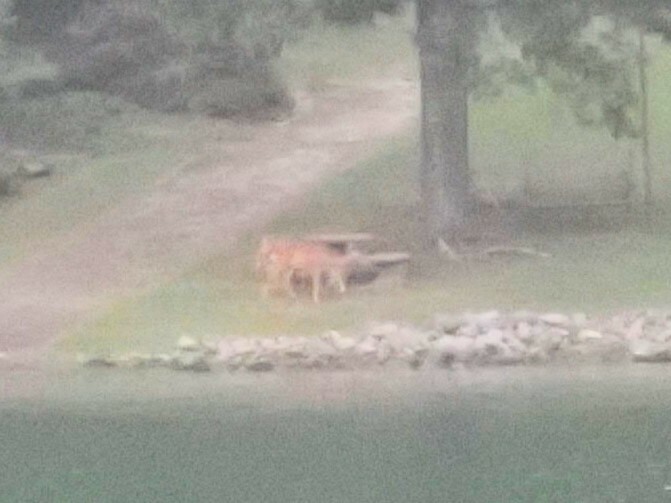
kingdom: Animalia
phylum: Chordata
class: Mammalia
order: Artiodactyla
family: Cervidae
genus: Odocoileus
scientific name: Odocoileus virginianus
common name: White-tailed deer
